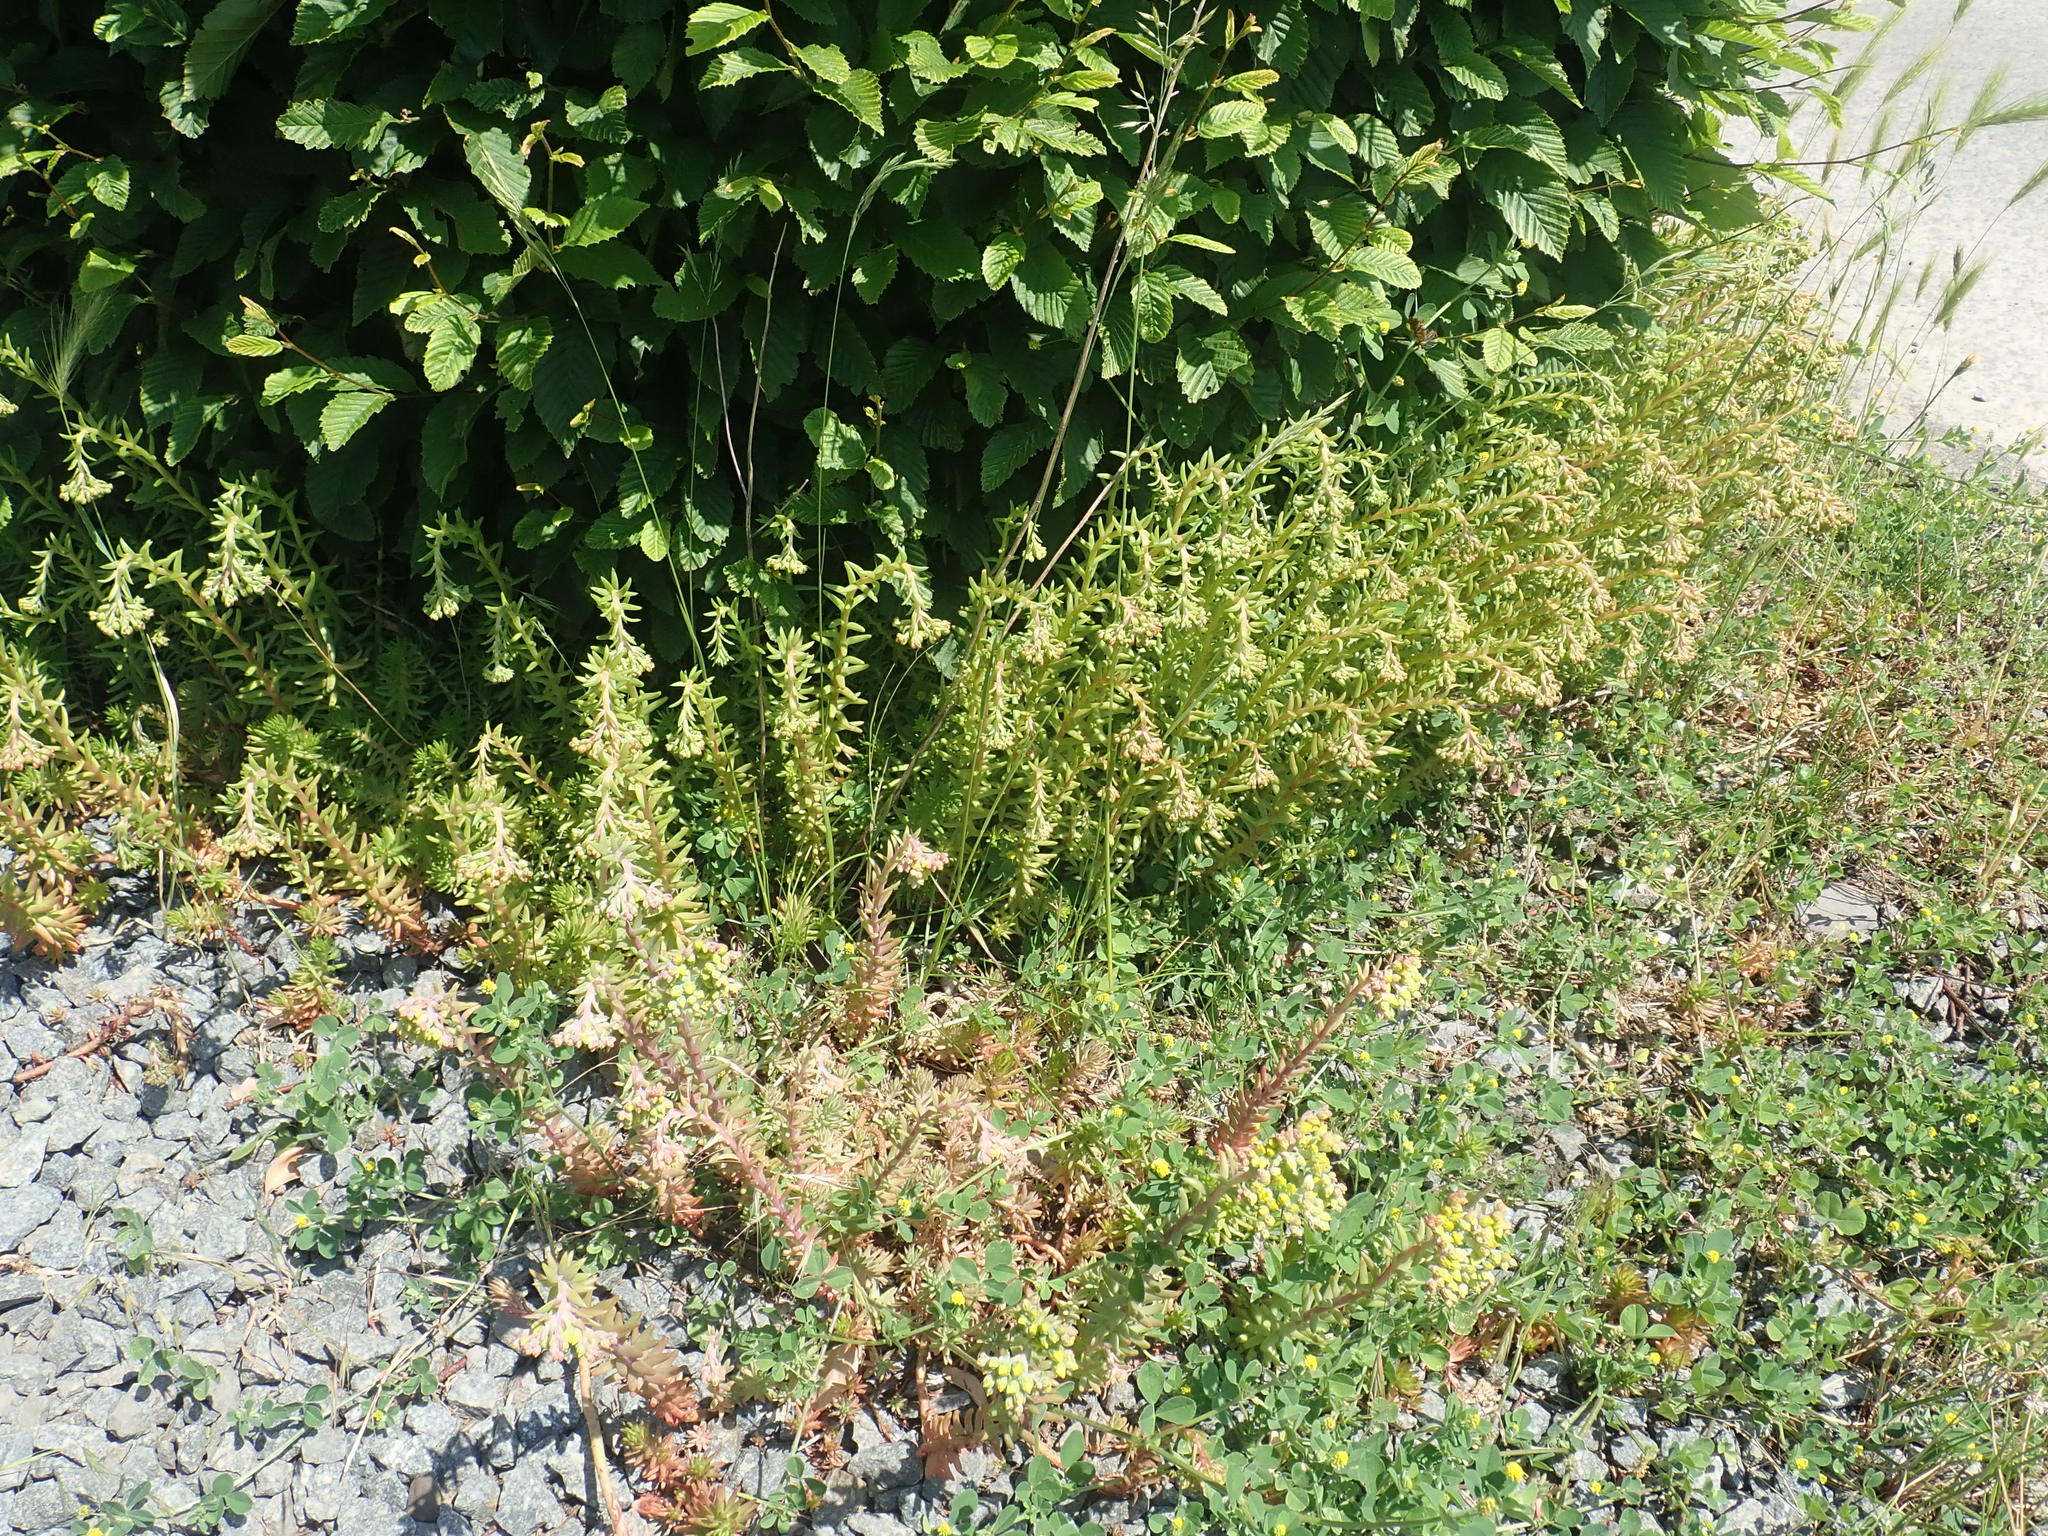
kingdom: Plantae
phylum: Tracheophyta
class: Magnoliopsida
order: Saxifragales
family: Crassulaceae
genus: Petrosedum
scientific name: Petrosedum rupestre
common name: Jenny's stonecrop
